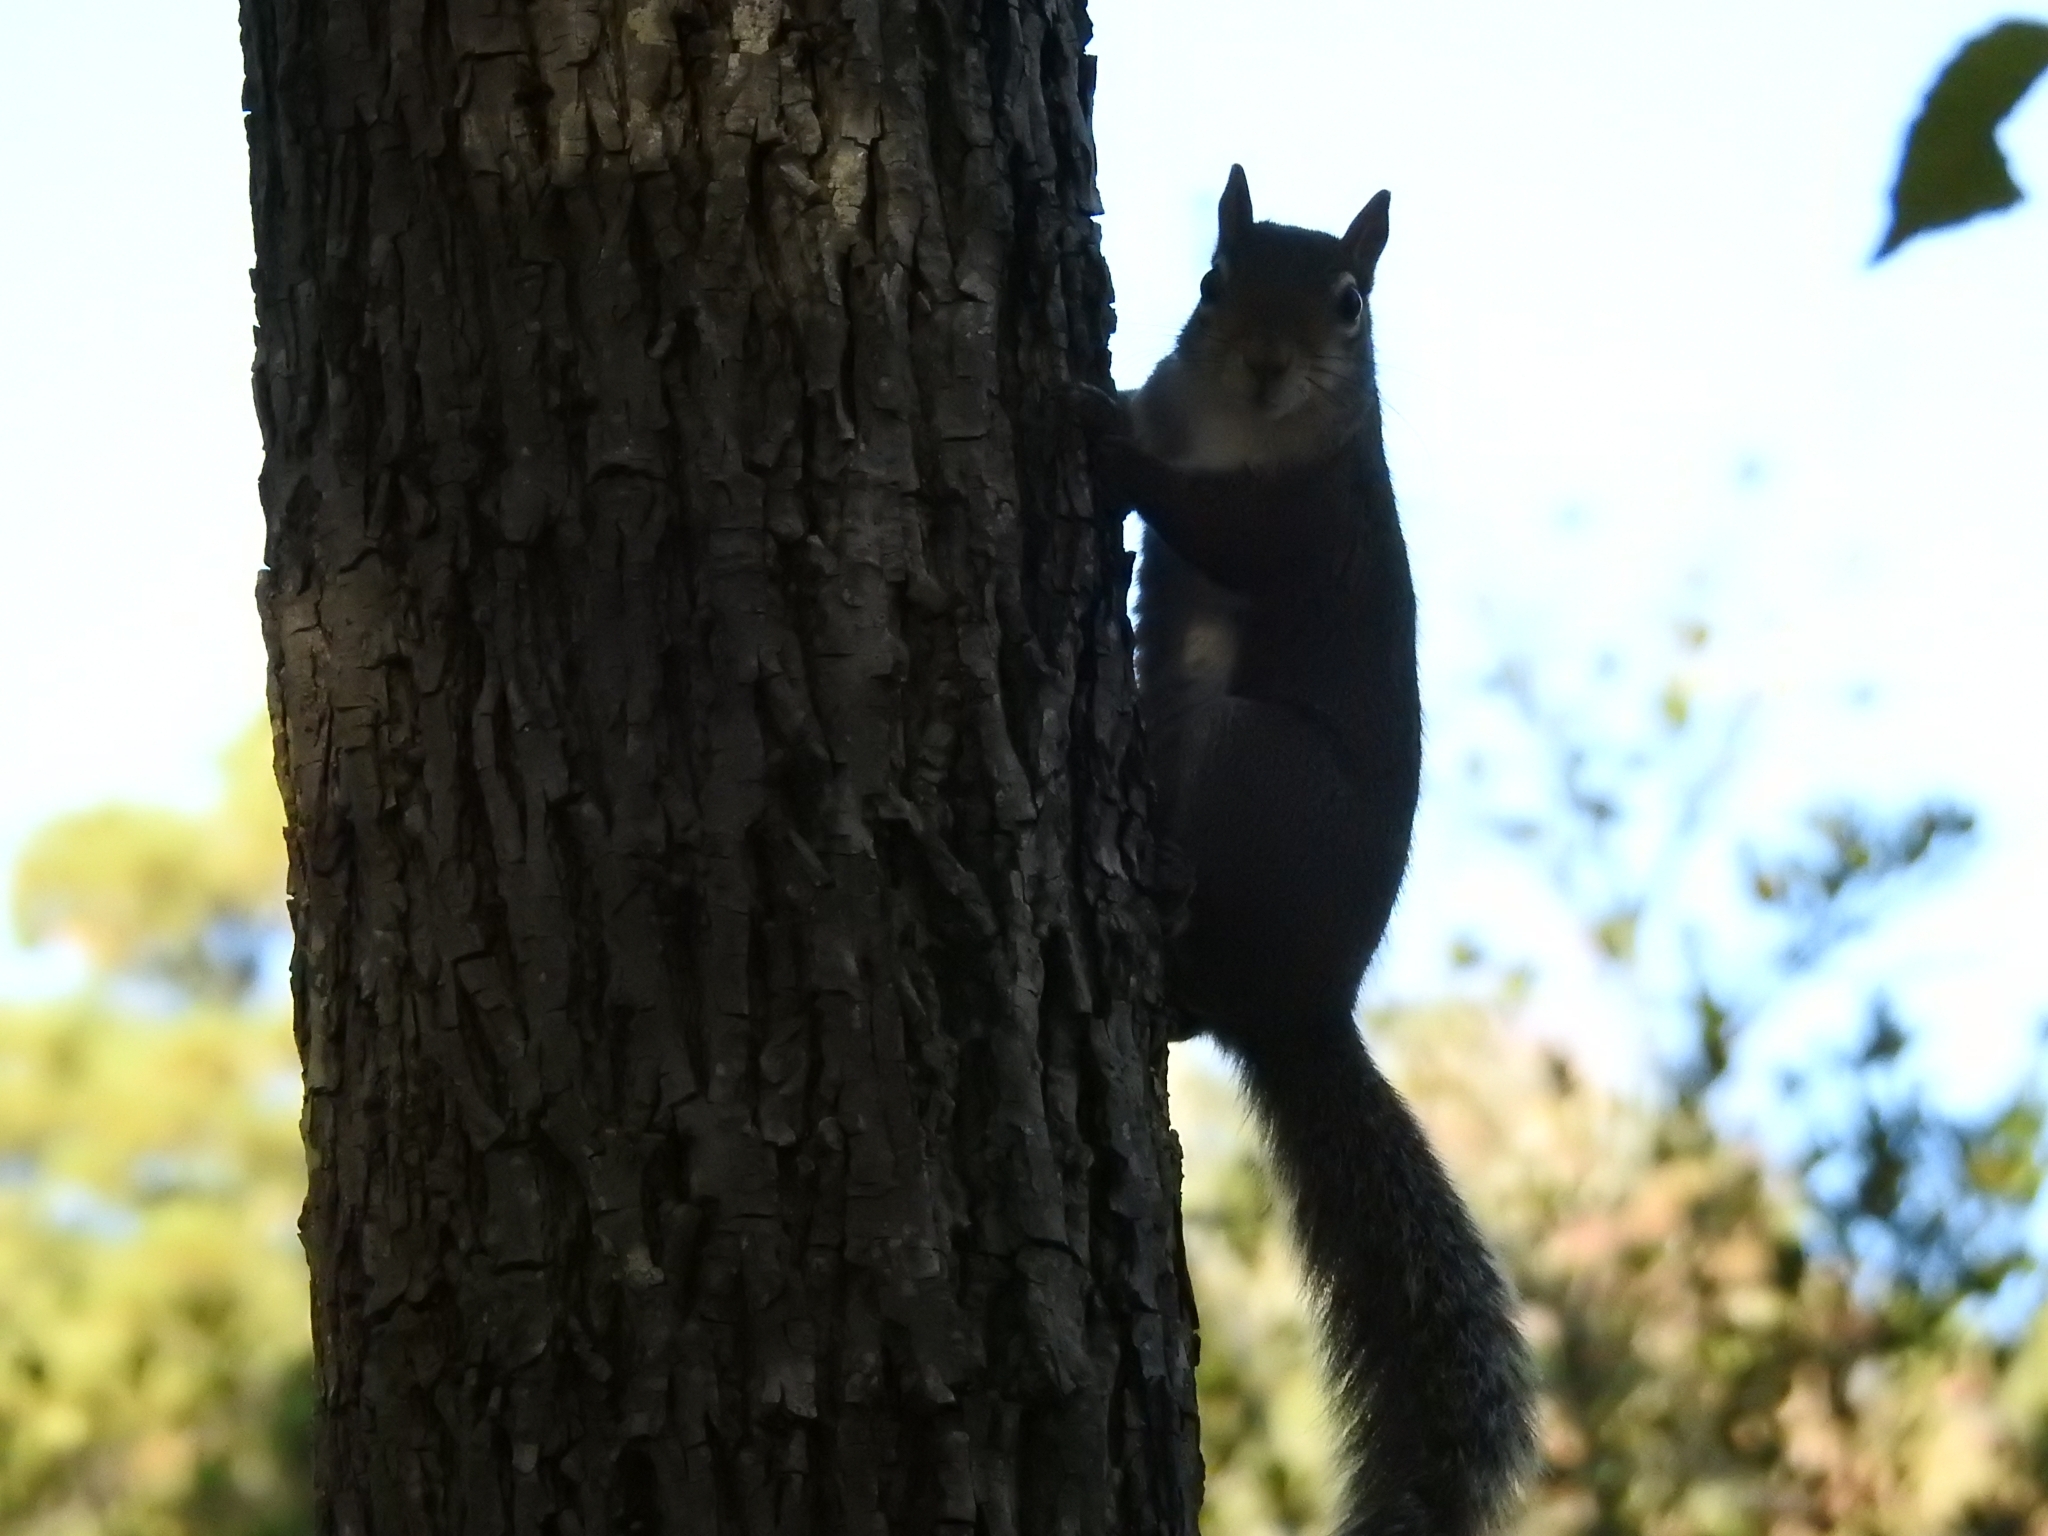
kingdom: Animalia
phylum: Chordata
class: Mammalia
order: Rodentia
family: Sciuridae
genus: Sciurus
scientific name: Sciurus carolinensis
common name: Eastern gray squirrel
